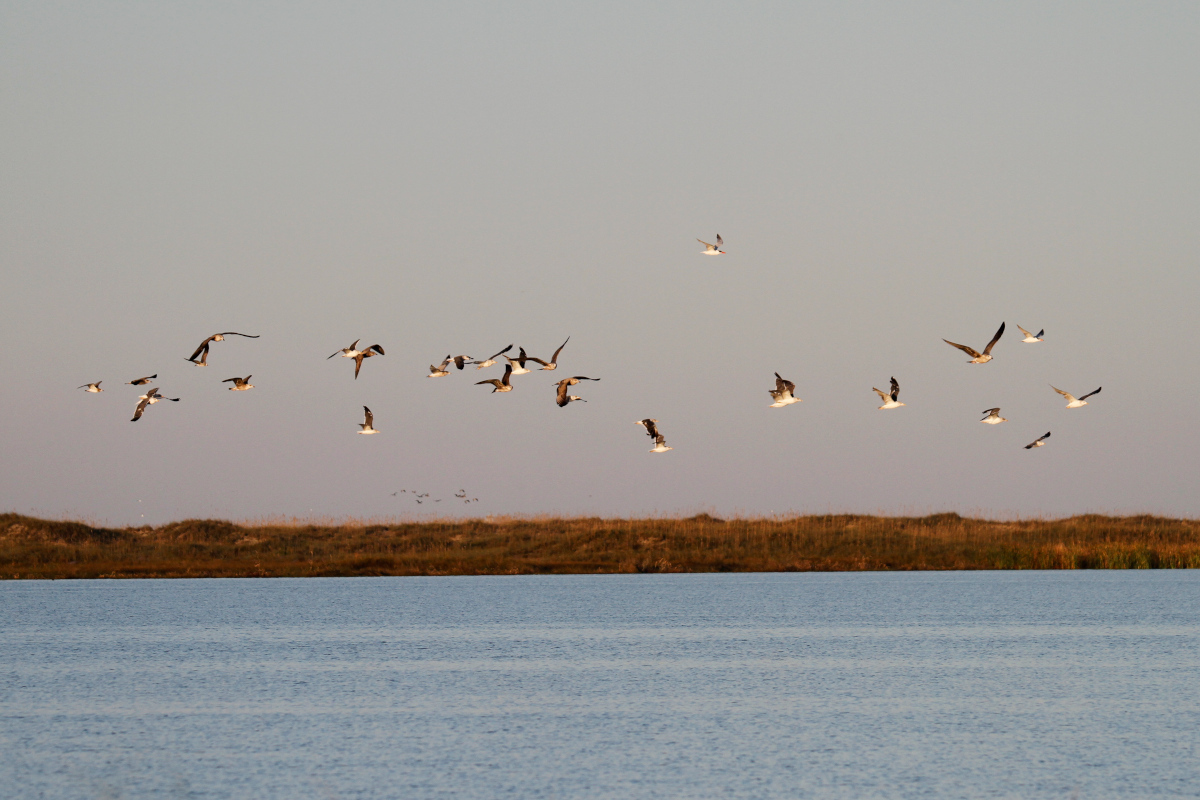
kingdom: Animalia
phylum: Chordata
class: Aves
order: Charadriiformes
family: Laridae
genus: Larus
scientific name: Larus fuscus
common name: Lesser black-backed gull
